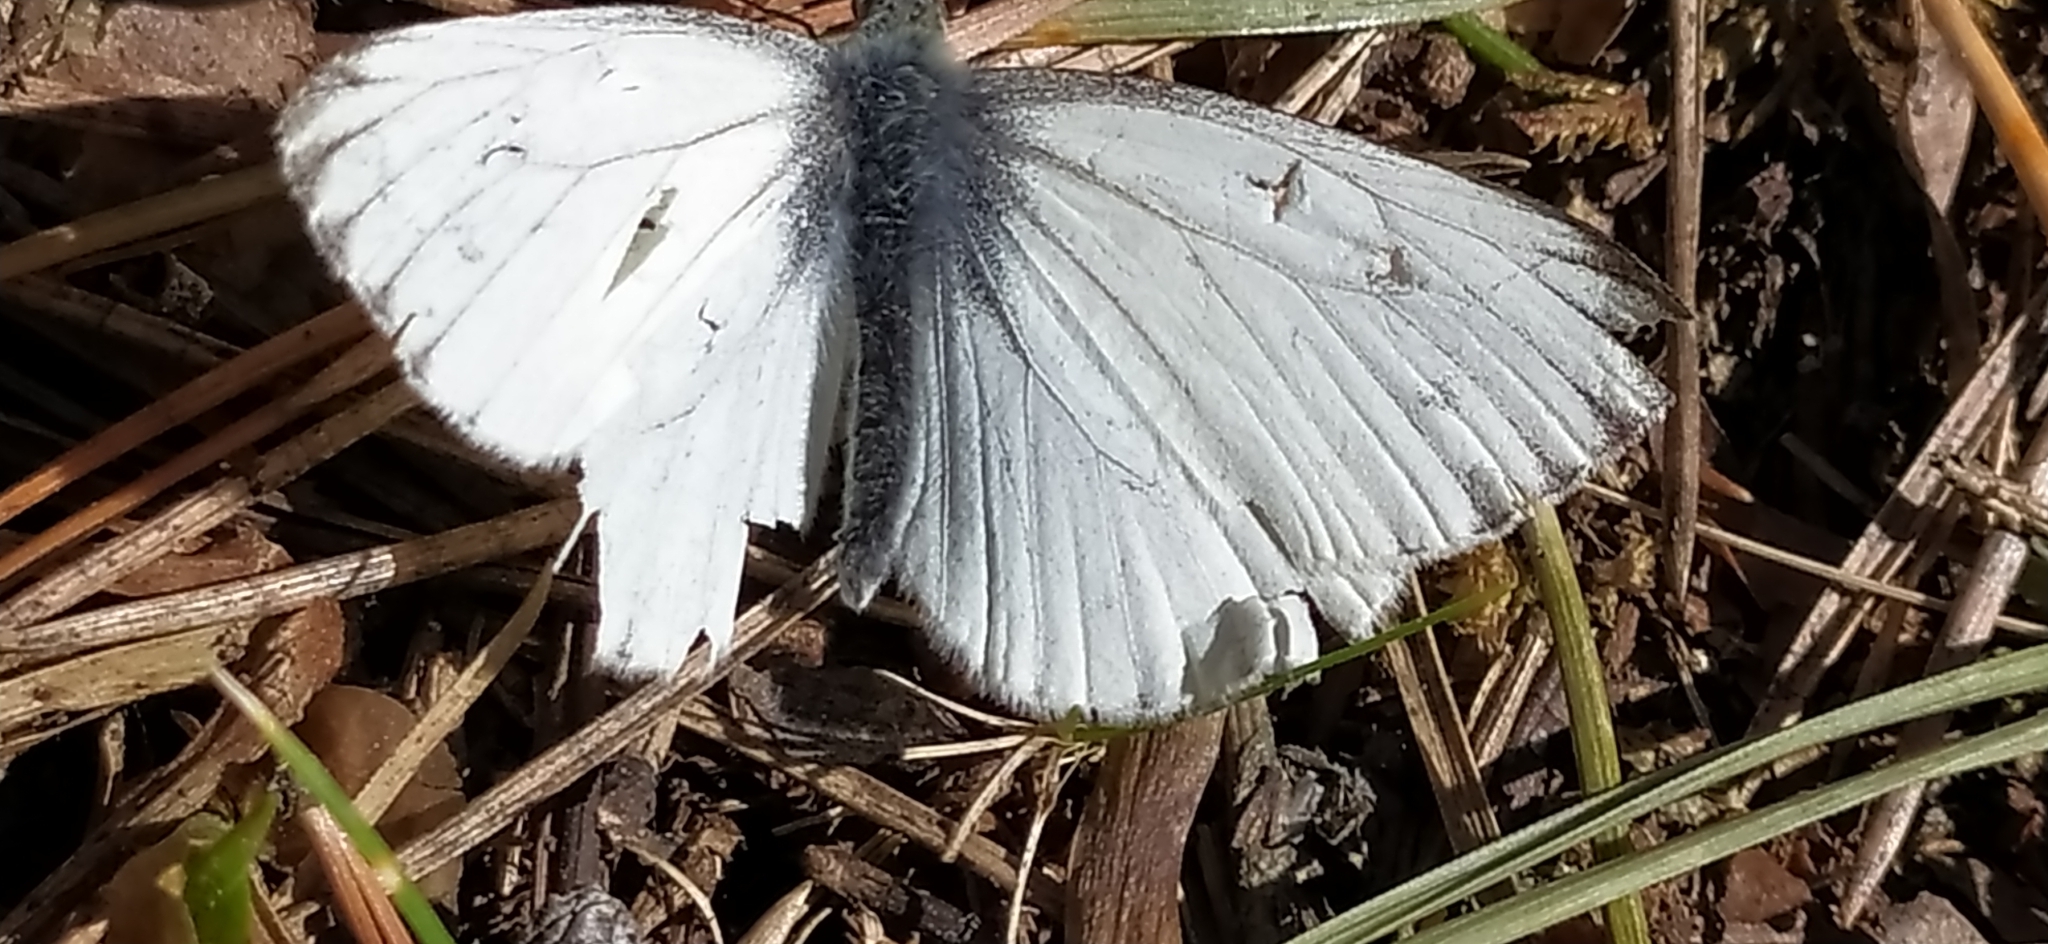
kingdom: Animalia
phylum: Arthropoda
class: Insecta
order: Lepidoptera
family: Pieridae
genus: Pieris
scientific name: Pieris napi
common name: Green-veined white
